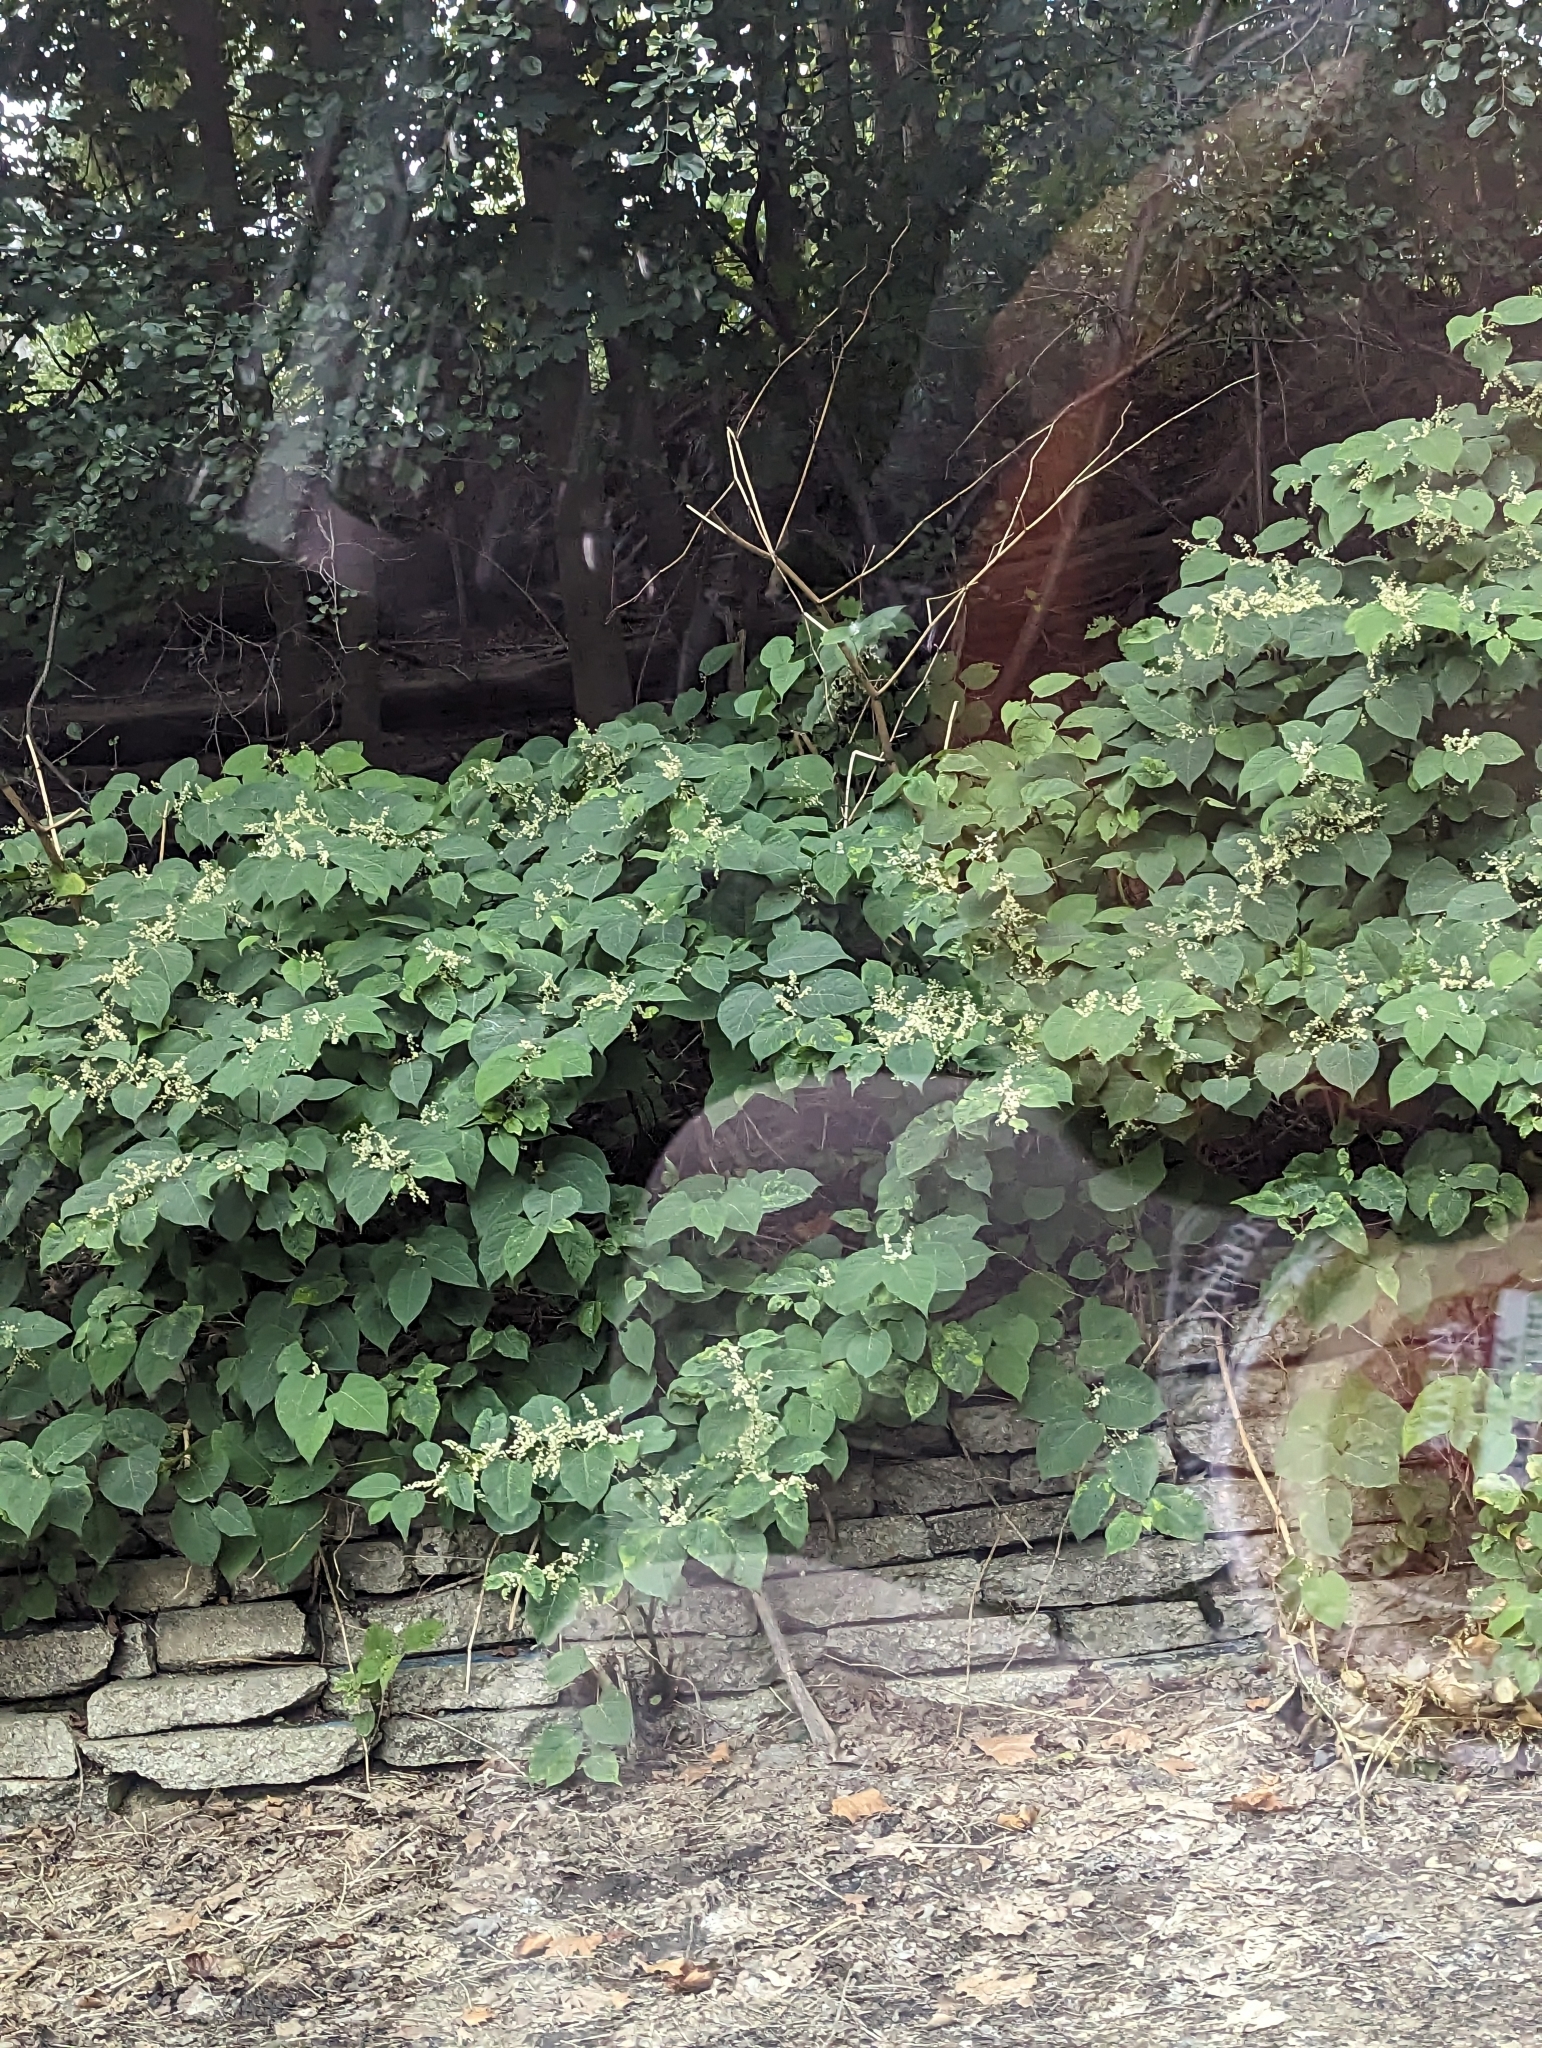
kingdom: Plantae
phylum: Tracheophyta
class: Magnoliopsida
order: Caryophyllales
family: Polygonaceae
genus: Reynoutria
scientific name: Reynoutria japonica
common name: Japanese knotweed
